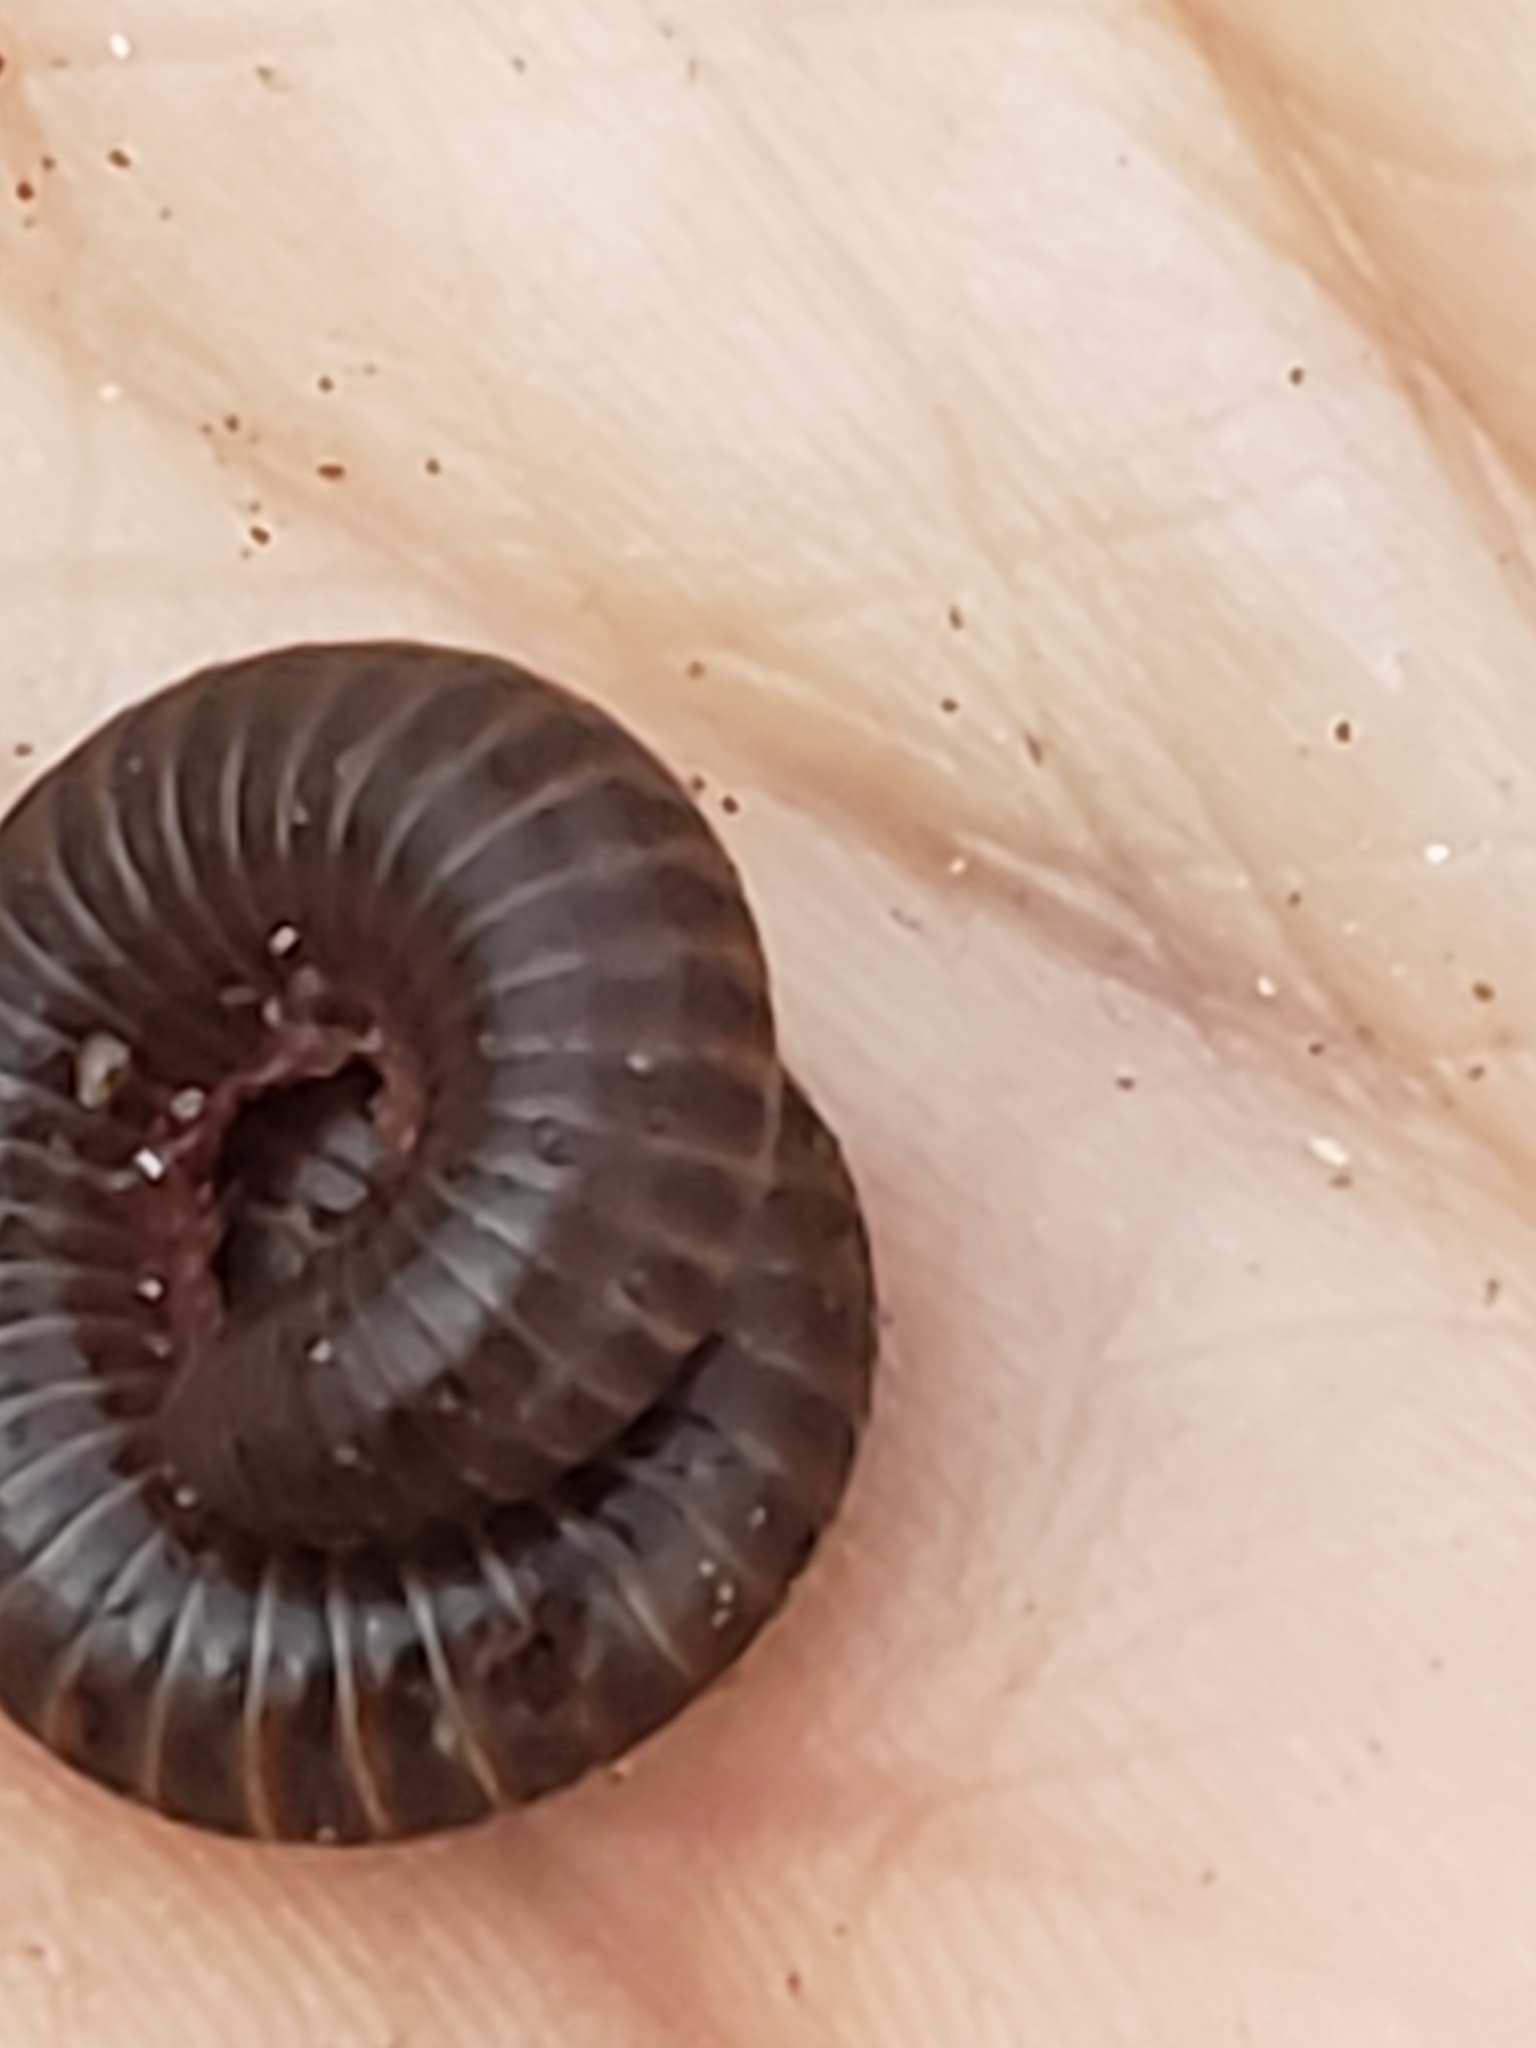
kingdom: Animalia
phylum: Arthropoda
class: Diplopoda
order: Spirobolida
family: Spirobolidae
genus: Narceus
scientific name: Narceus
